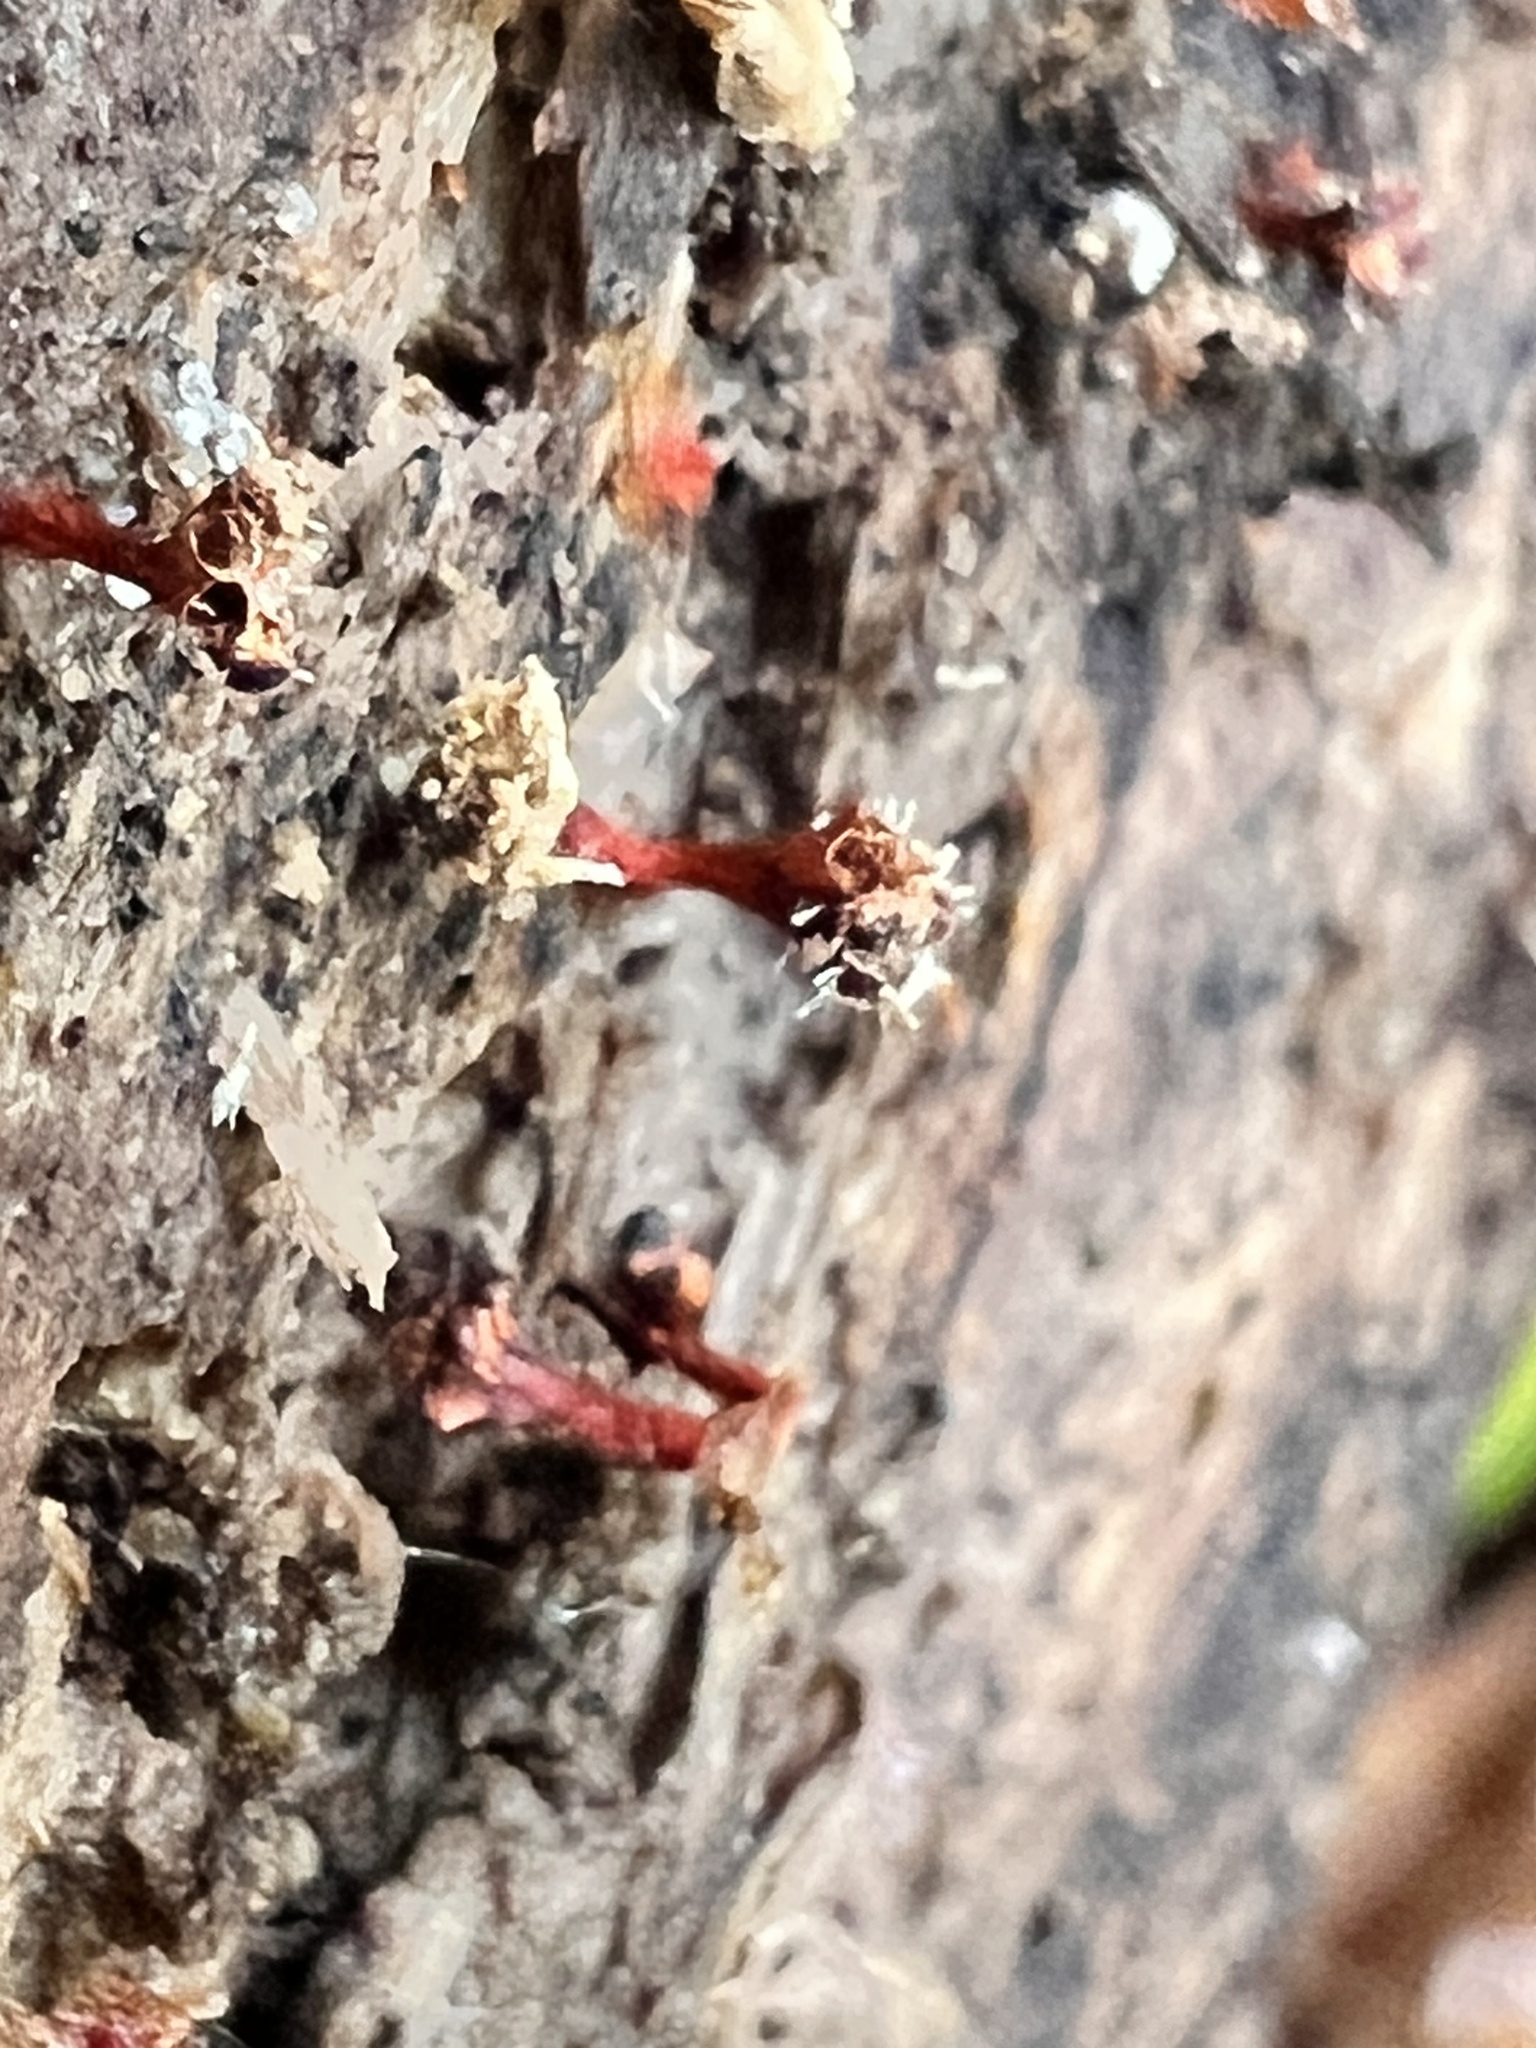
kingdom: Fungi
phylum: Ascomycota
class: Sordariomycetes
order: Hypocreales
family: Ophiocordycipitaceae
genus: Polycephalomyces
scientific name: Polycephalomyces tomentosus
